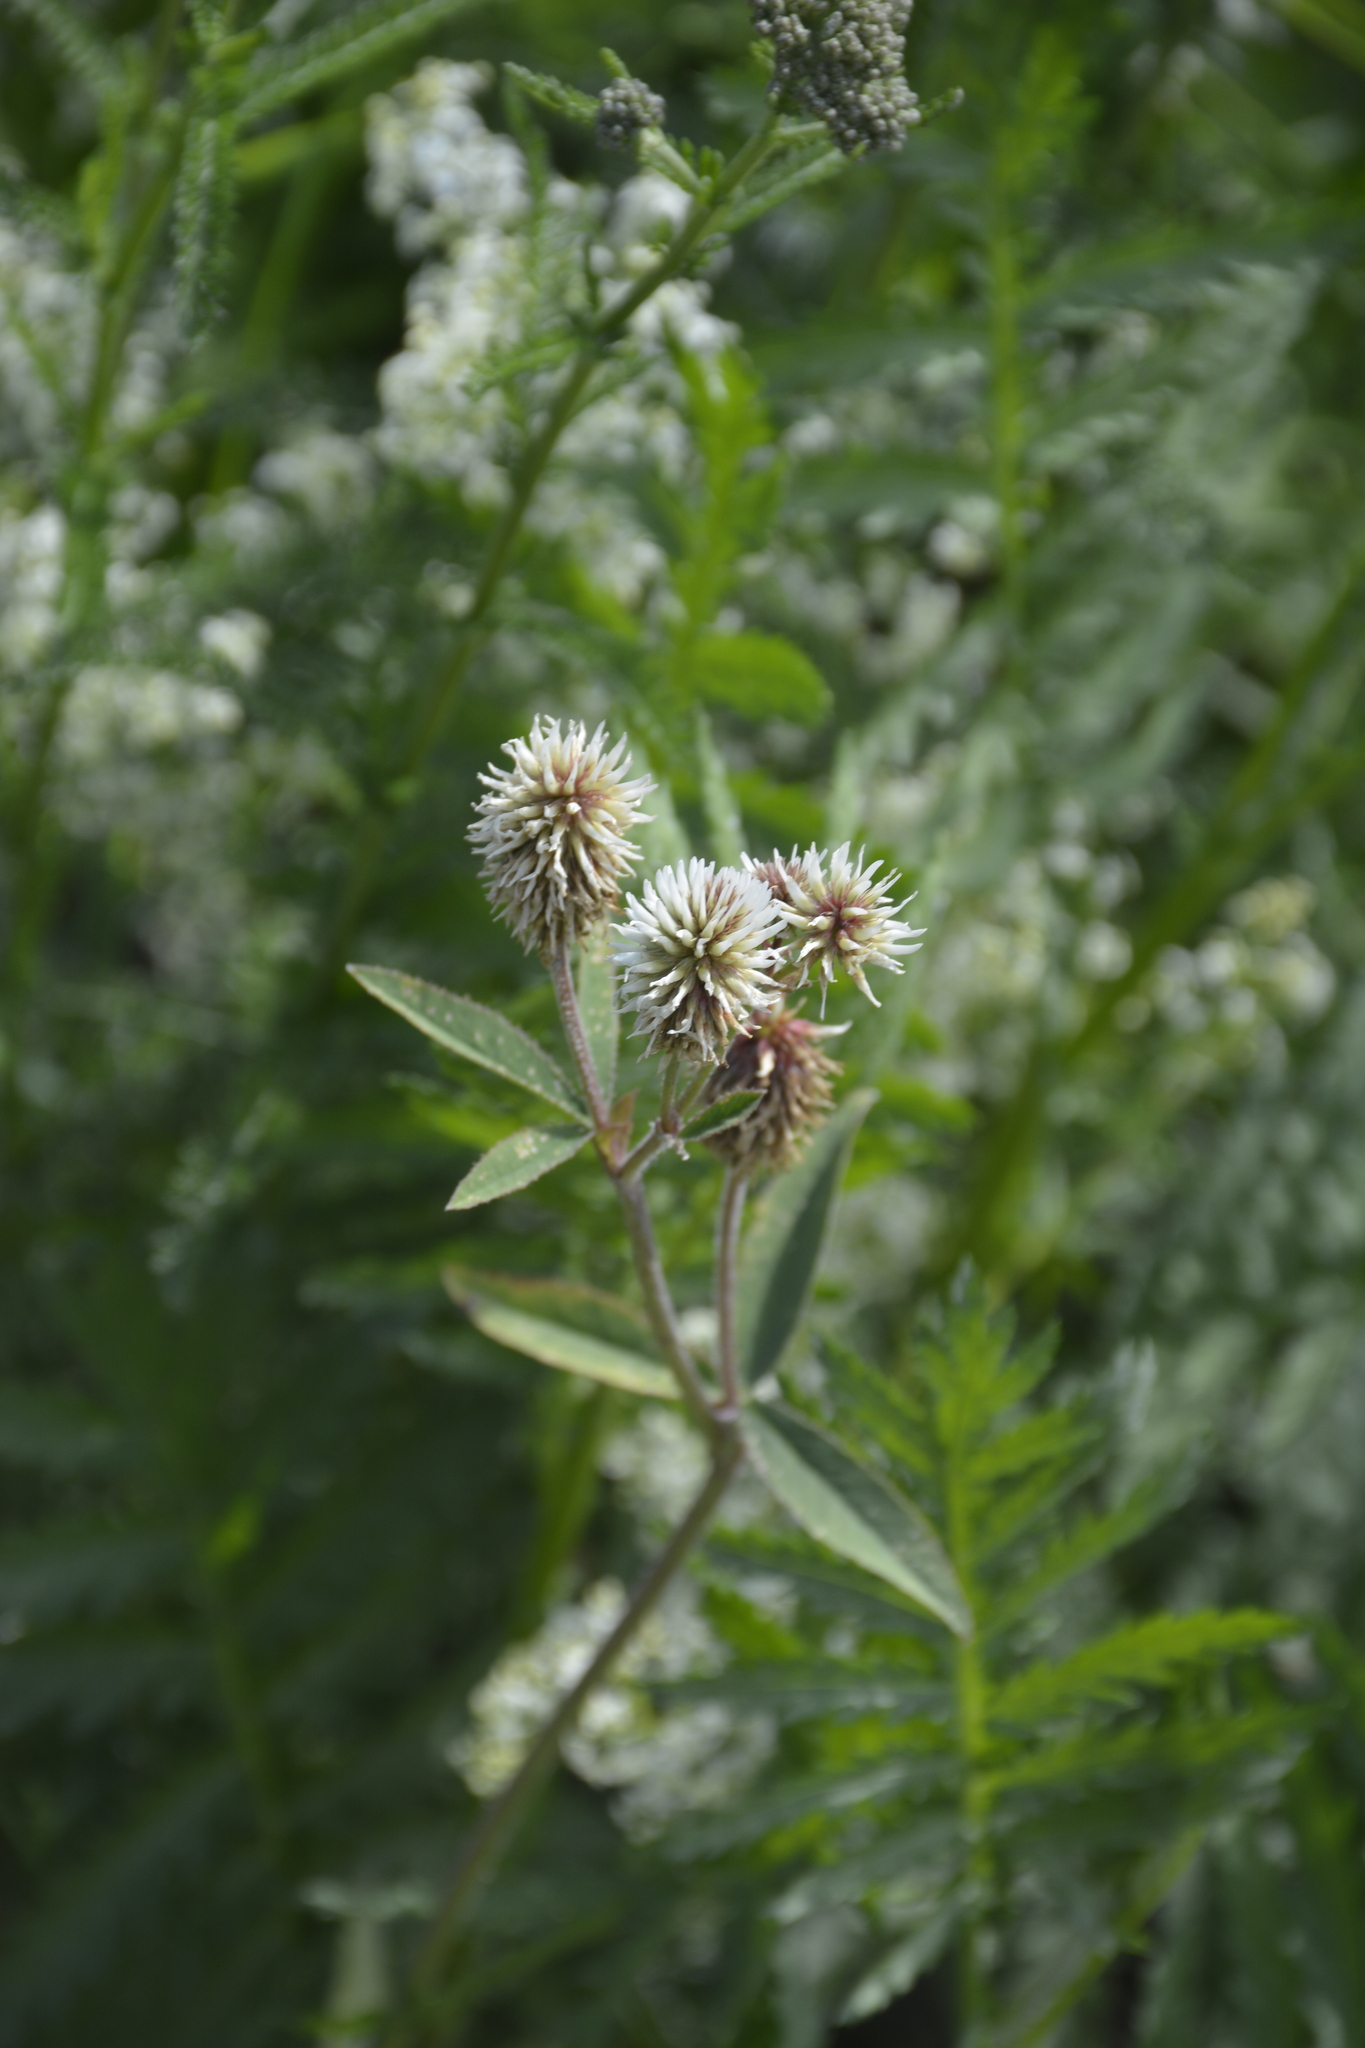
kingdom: Plantae
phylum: Tracheophyta
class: Magnoliopsida
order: Fabales
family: Fabaceae
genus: Trifolium
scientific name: Trifolium montanum
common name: Mountain clover
